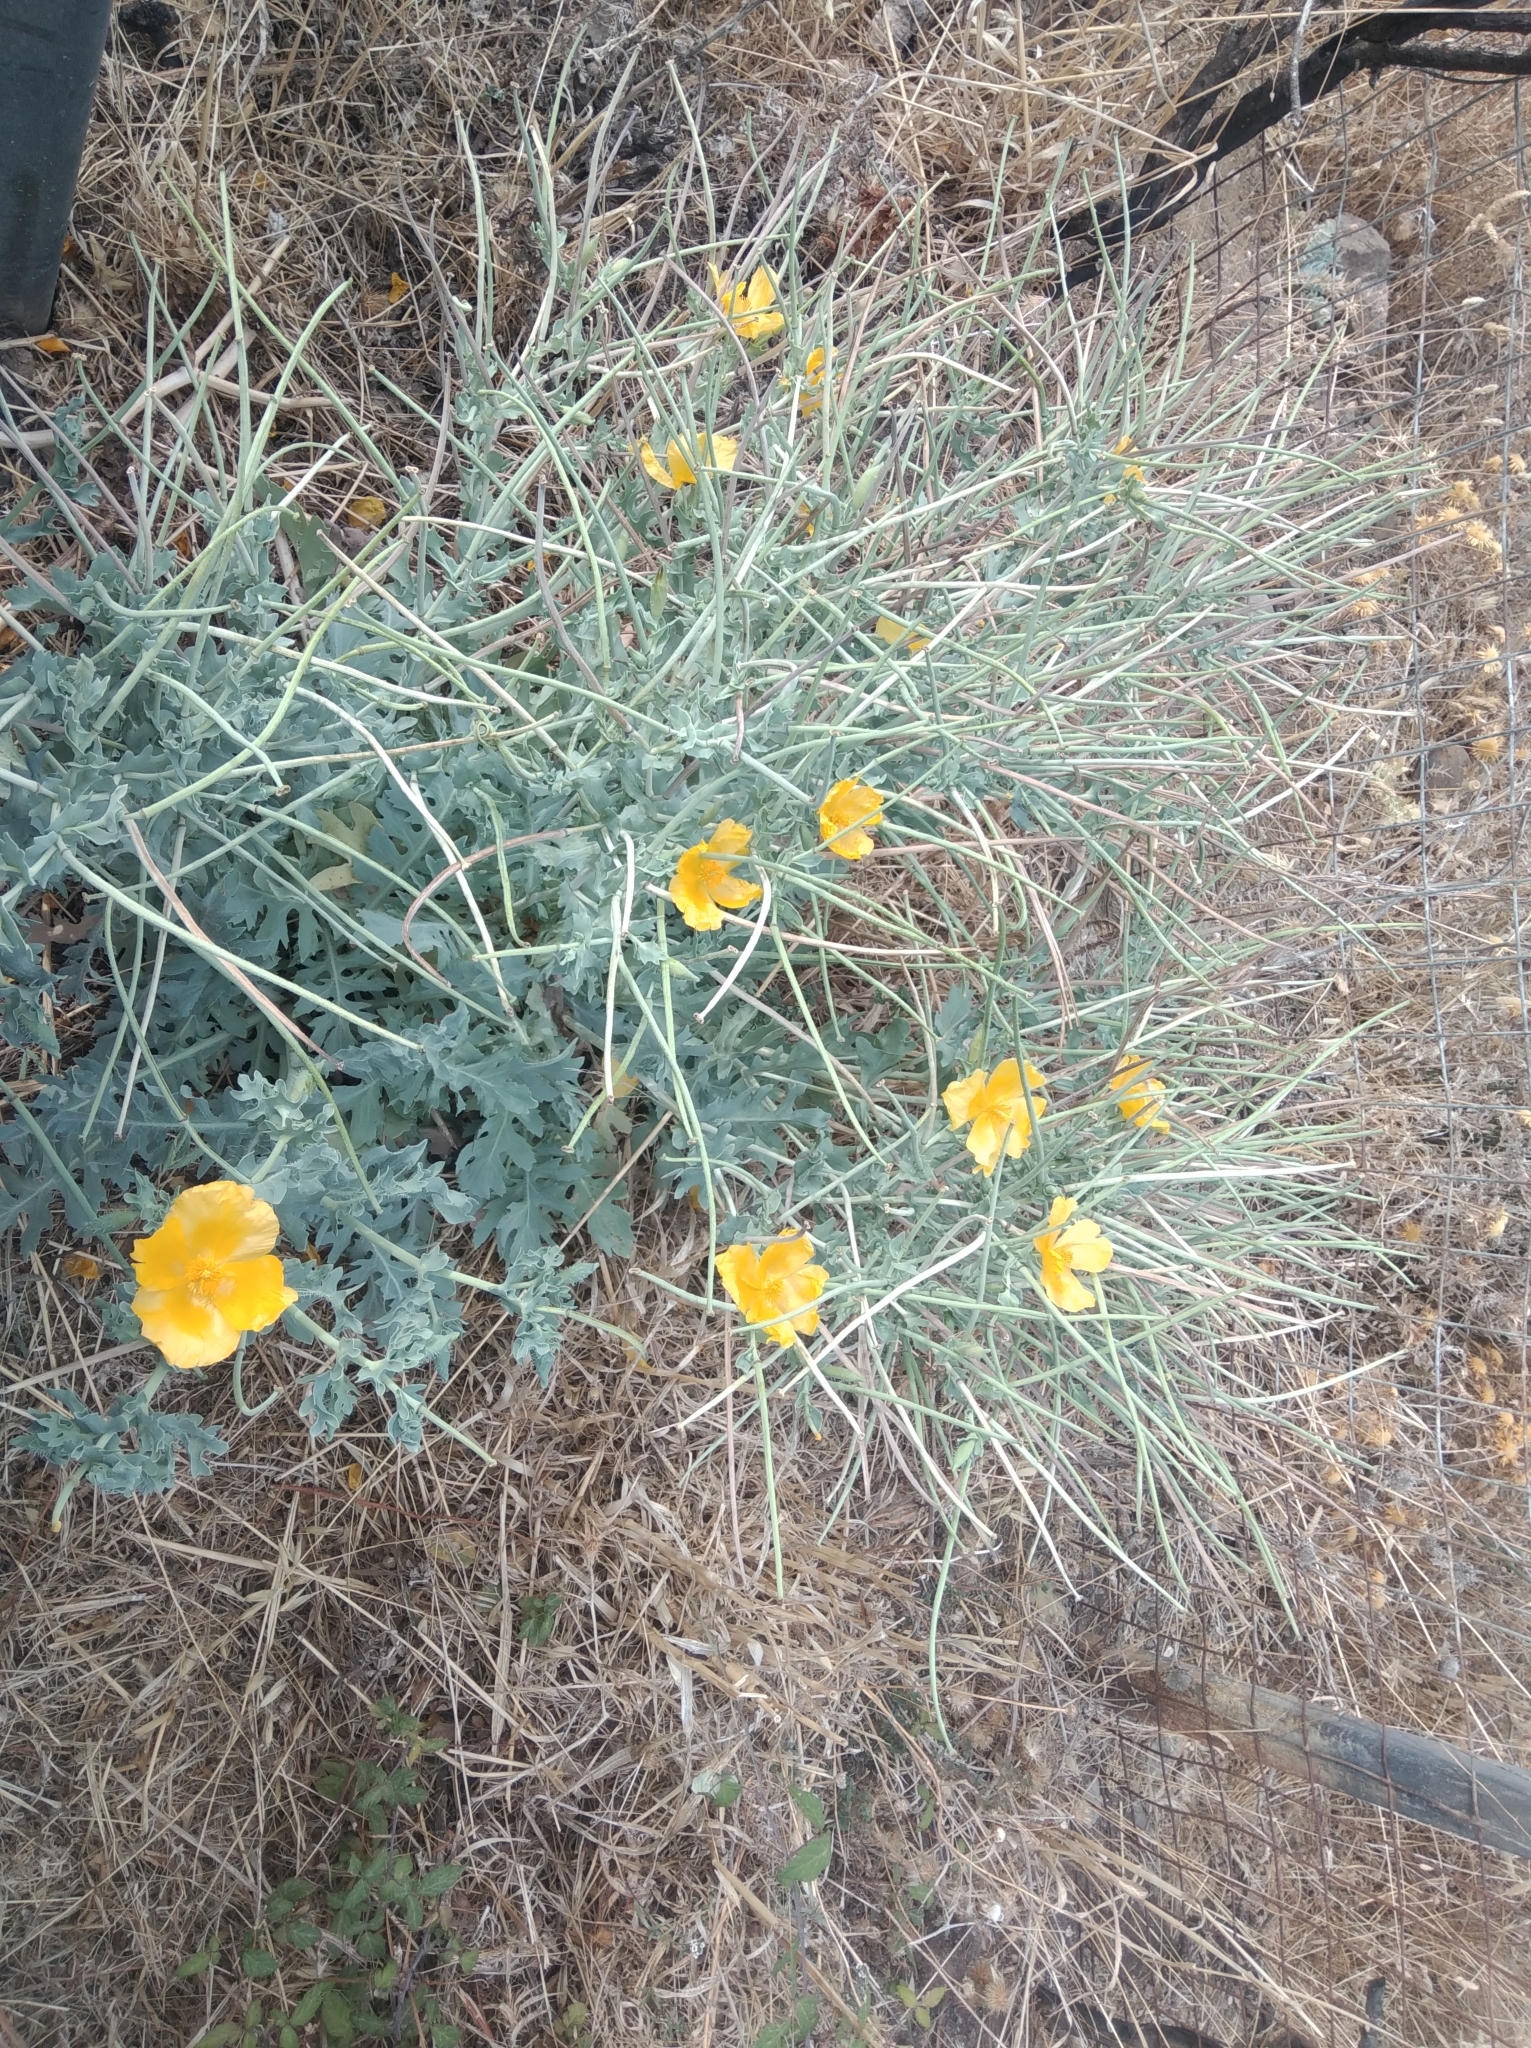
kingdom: Plantae
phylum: Tracheophyta
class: Magnoliopsida
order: Ranunculales
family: Papaveraceae
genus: Glaucium
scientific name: Glaucium flavum
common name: Yellow horned-poppy
